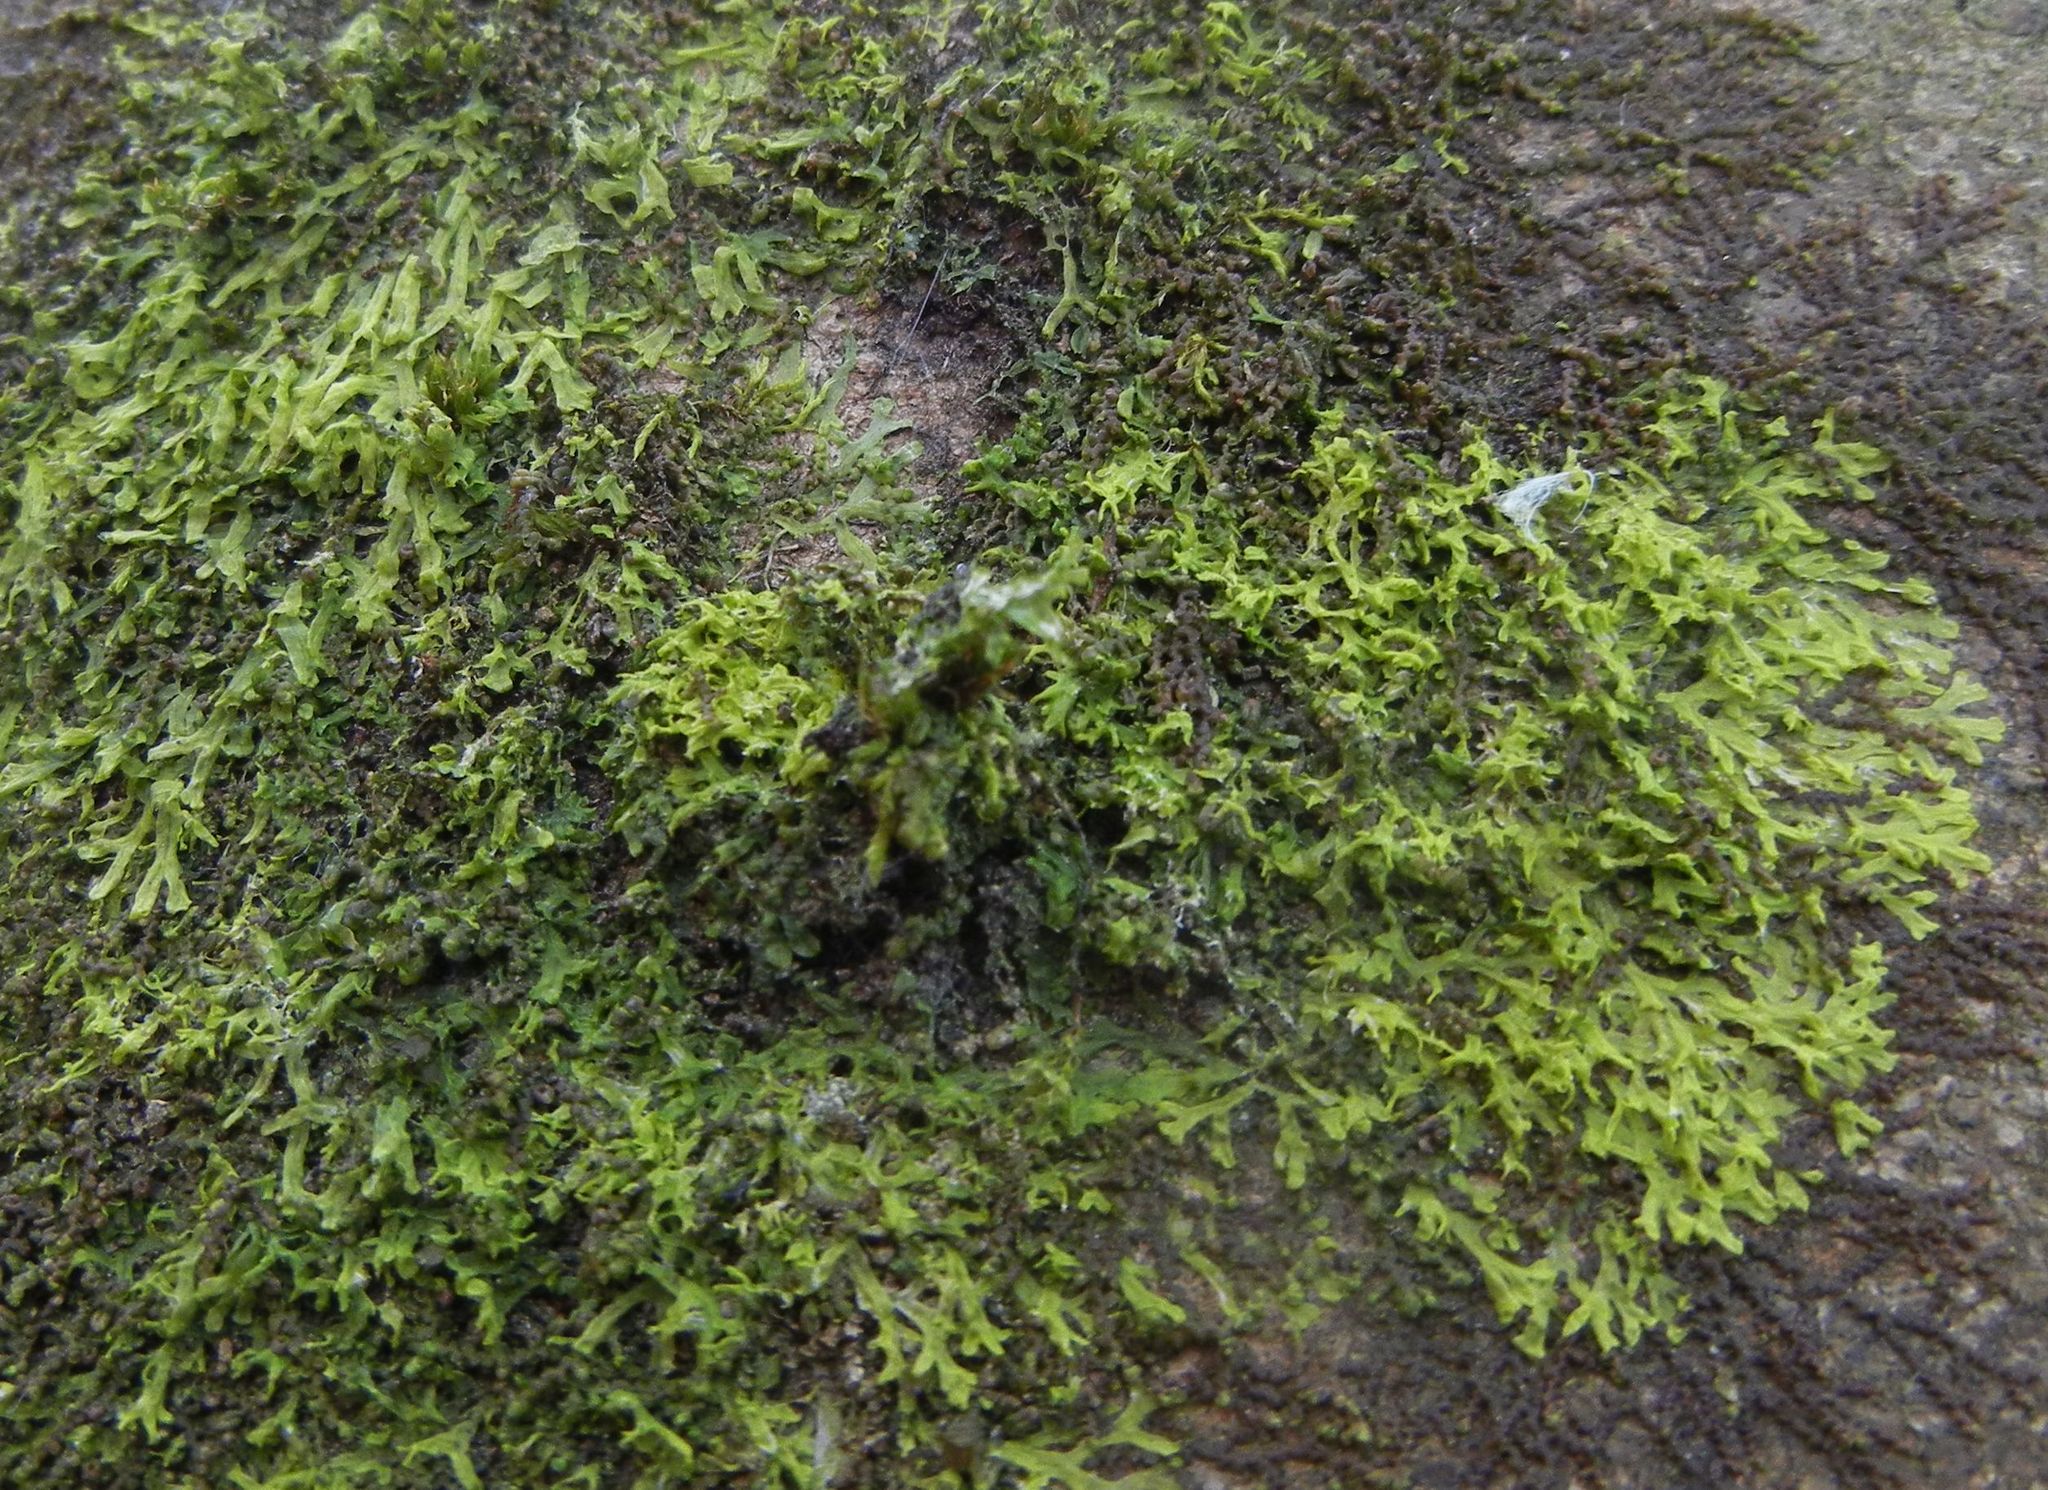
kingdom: Plantae
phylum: Marchantiophyta
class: Jungermanniopsida
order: Metzgeriales
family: Metzgeriaceae
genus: Metzgeria
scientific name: Metzgeria furcata
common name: Forked veilwort
